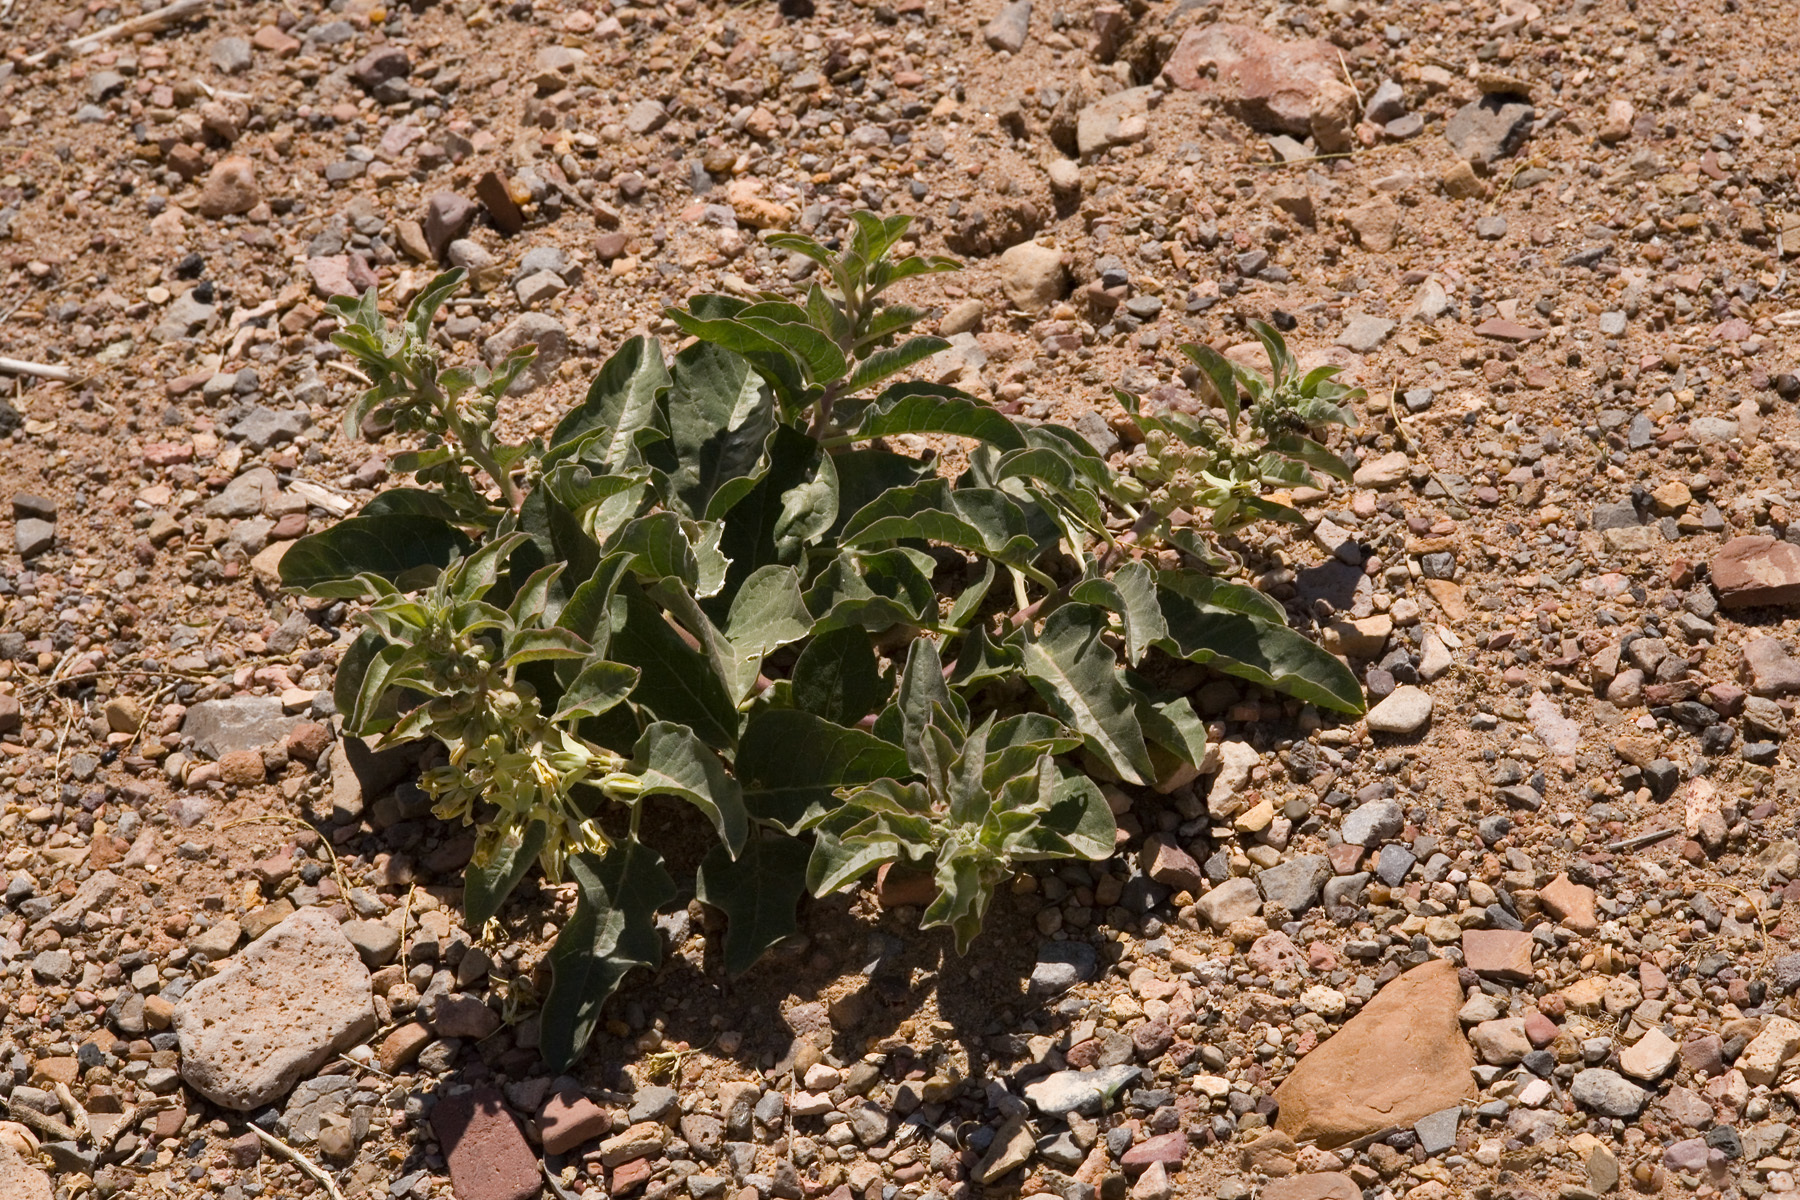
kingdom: Plantae
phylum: Tracheophyta
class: Magnoliopsida
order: Gentianales
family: Apocynaceae
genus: Asclepias
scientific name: Asclepias oenotheroides
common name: Zizotes milkweed
